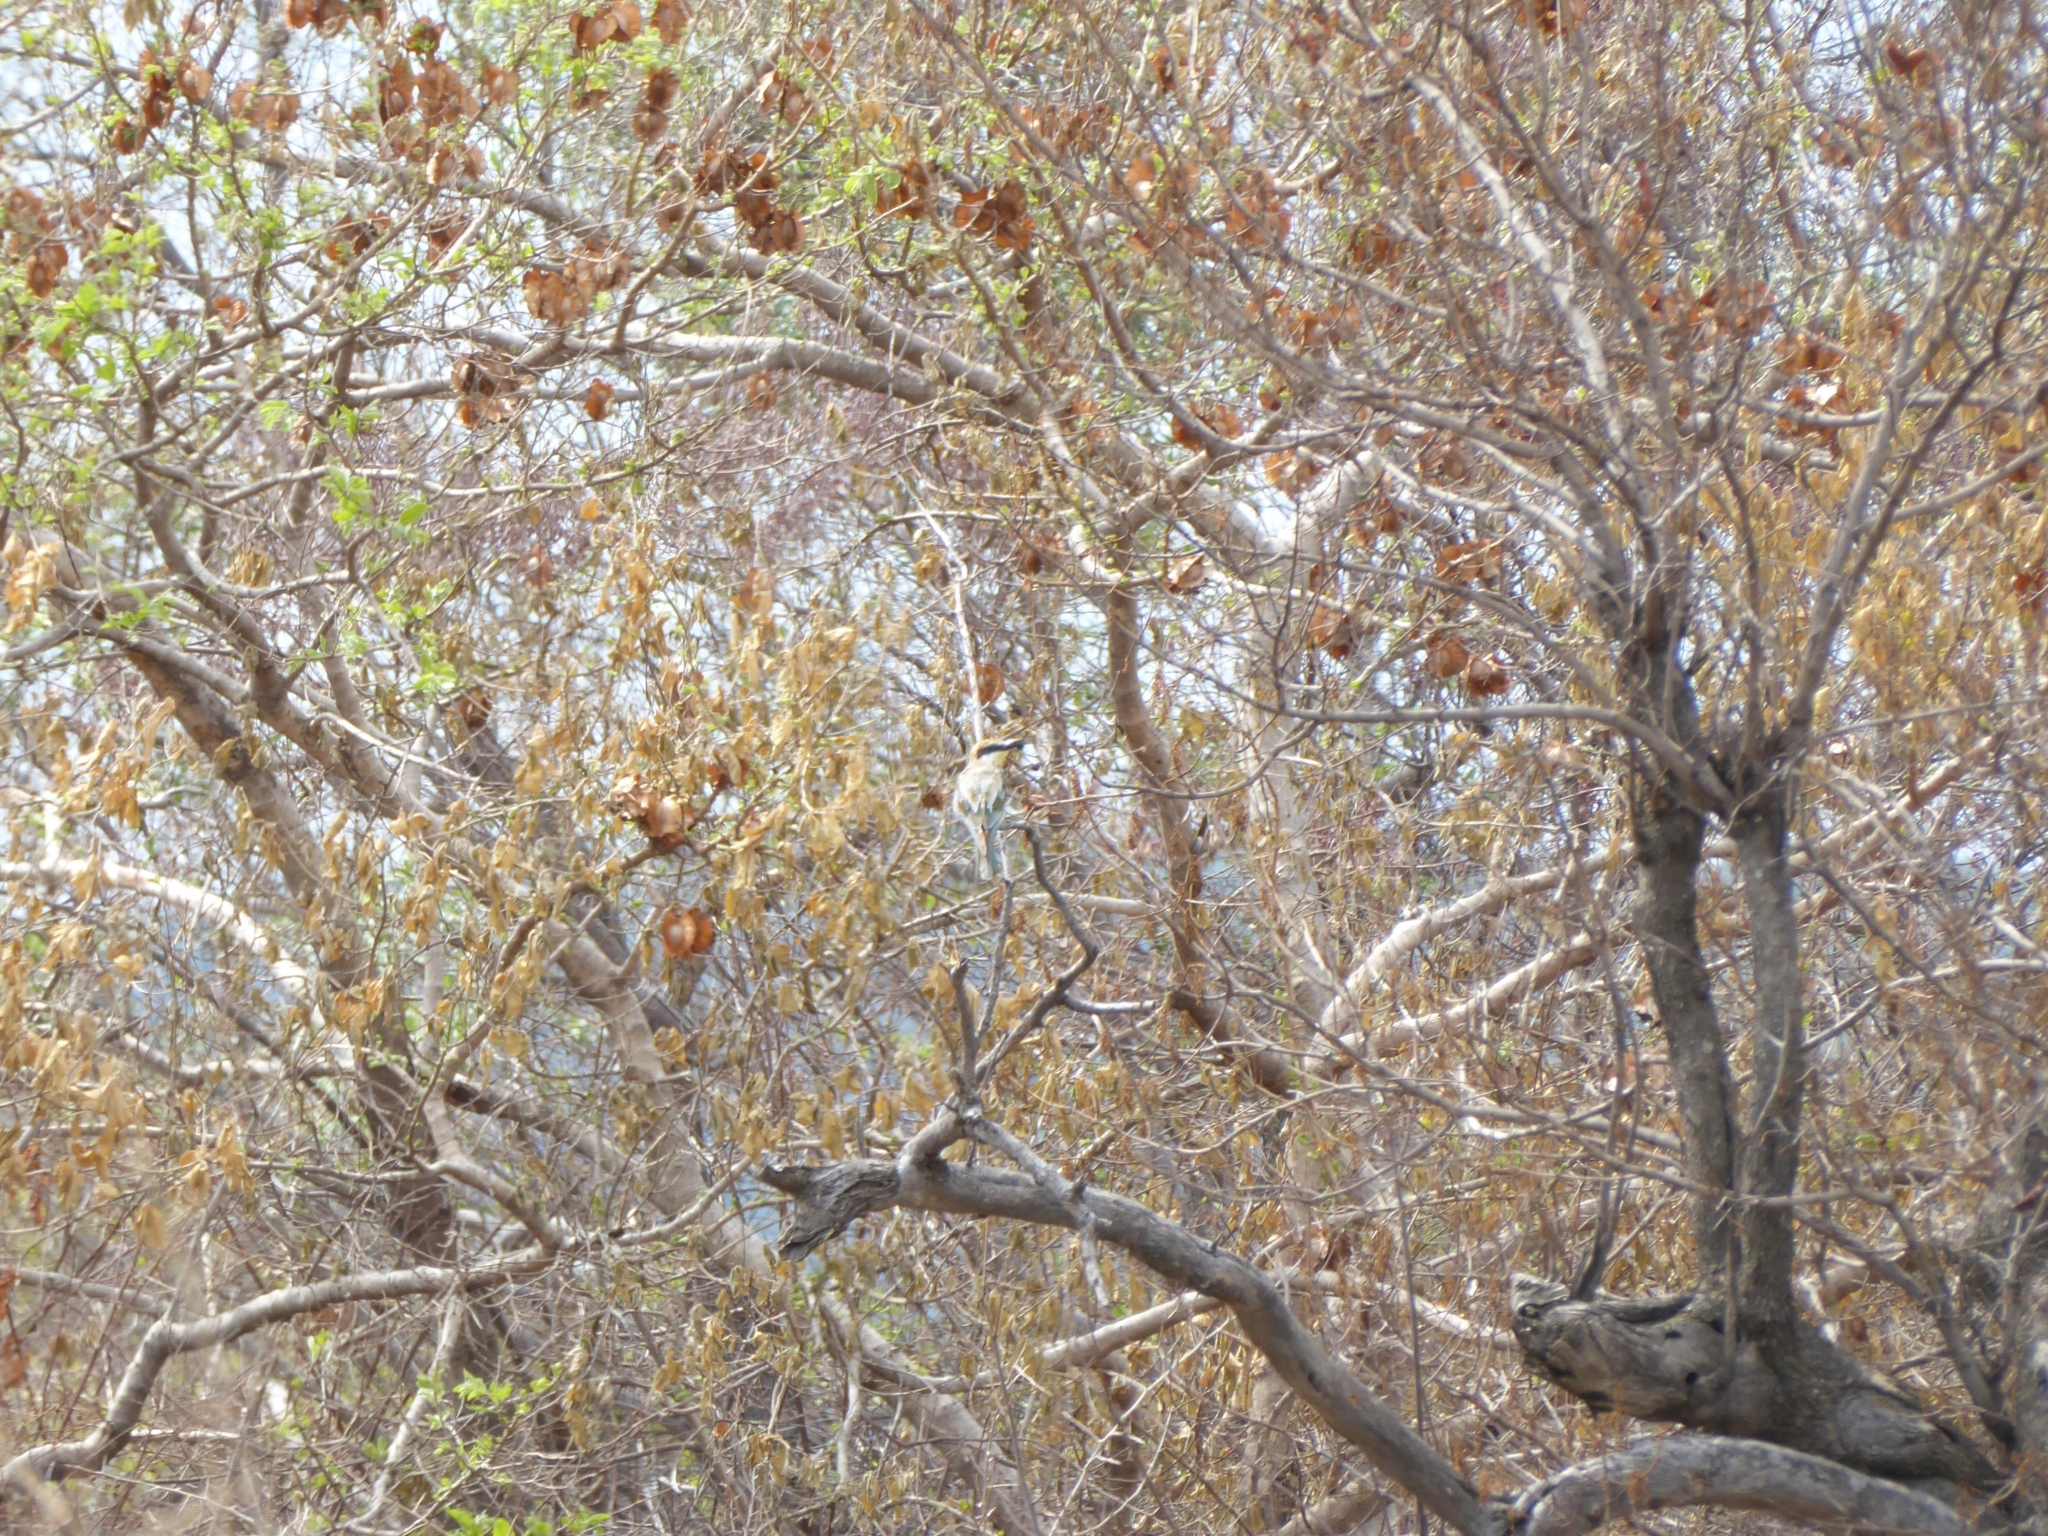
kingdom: Animalia
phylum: Chordata
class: Aves
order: Coraciiformes
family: Meropidae
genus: Merops
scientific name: Merops apiaster
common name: European bee-eater
